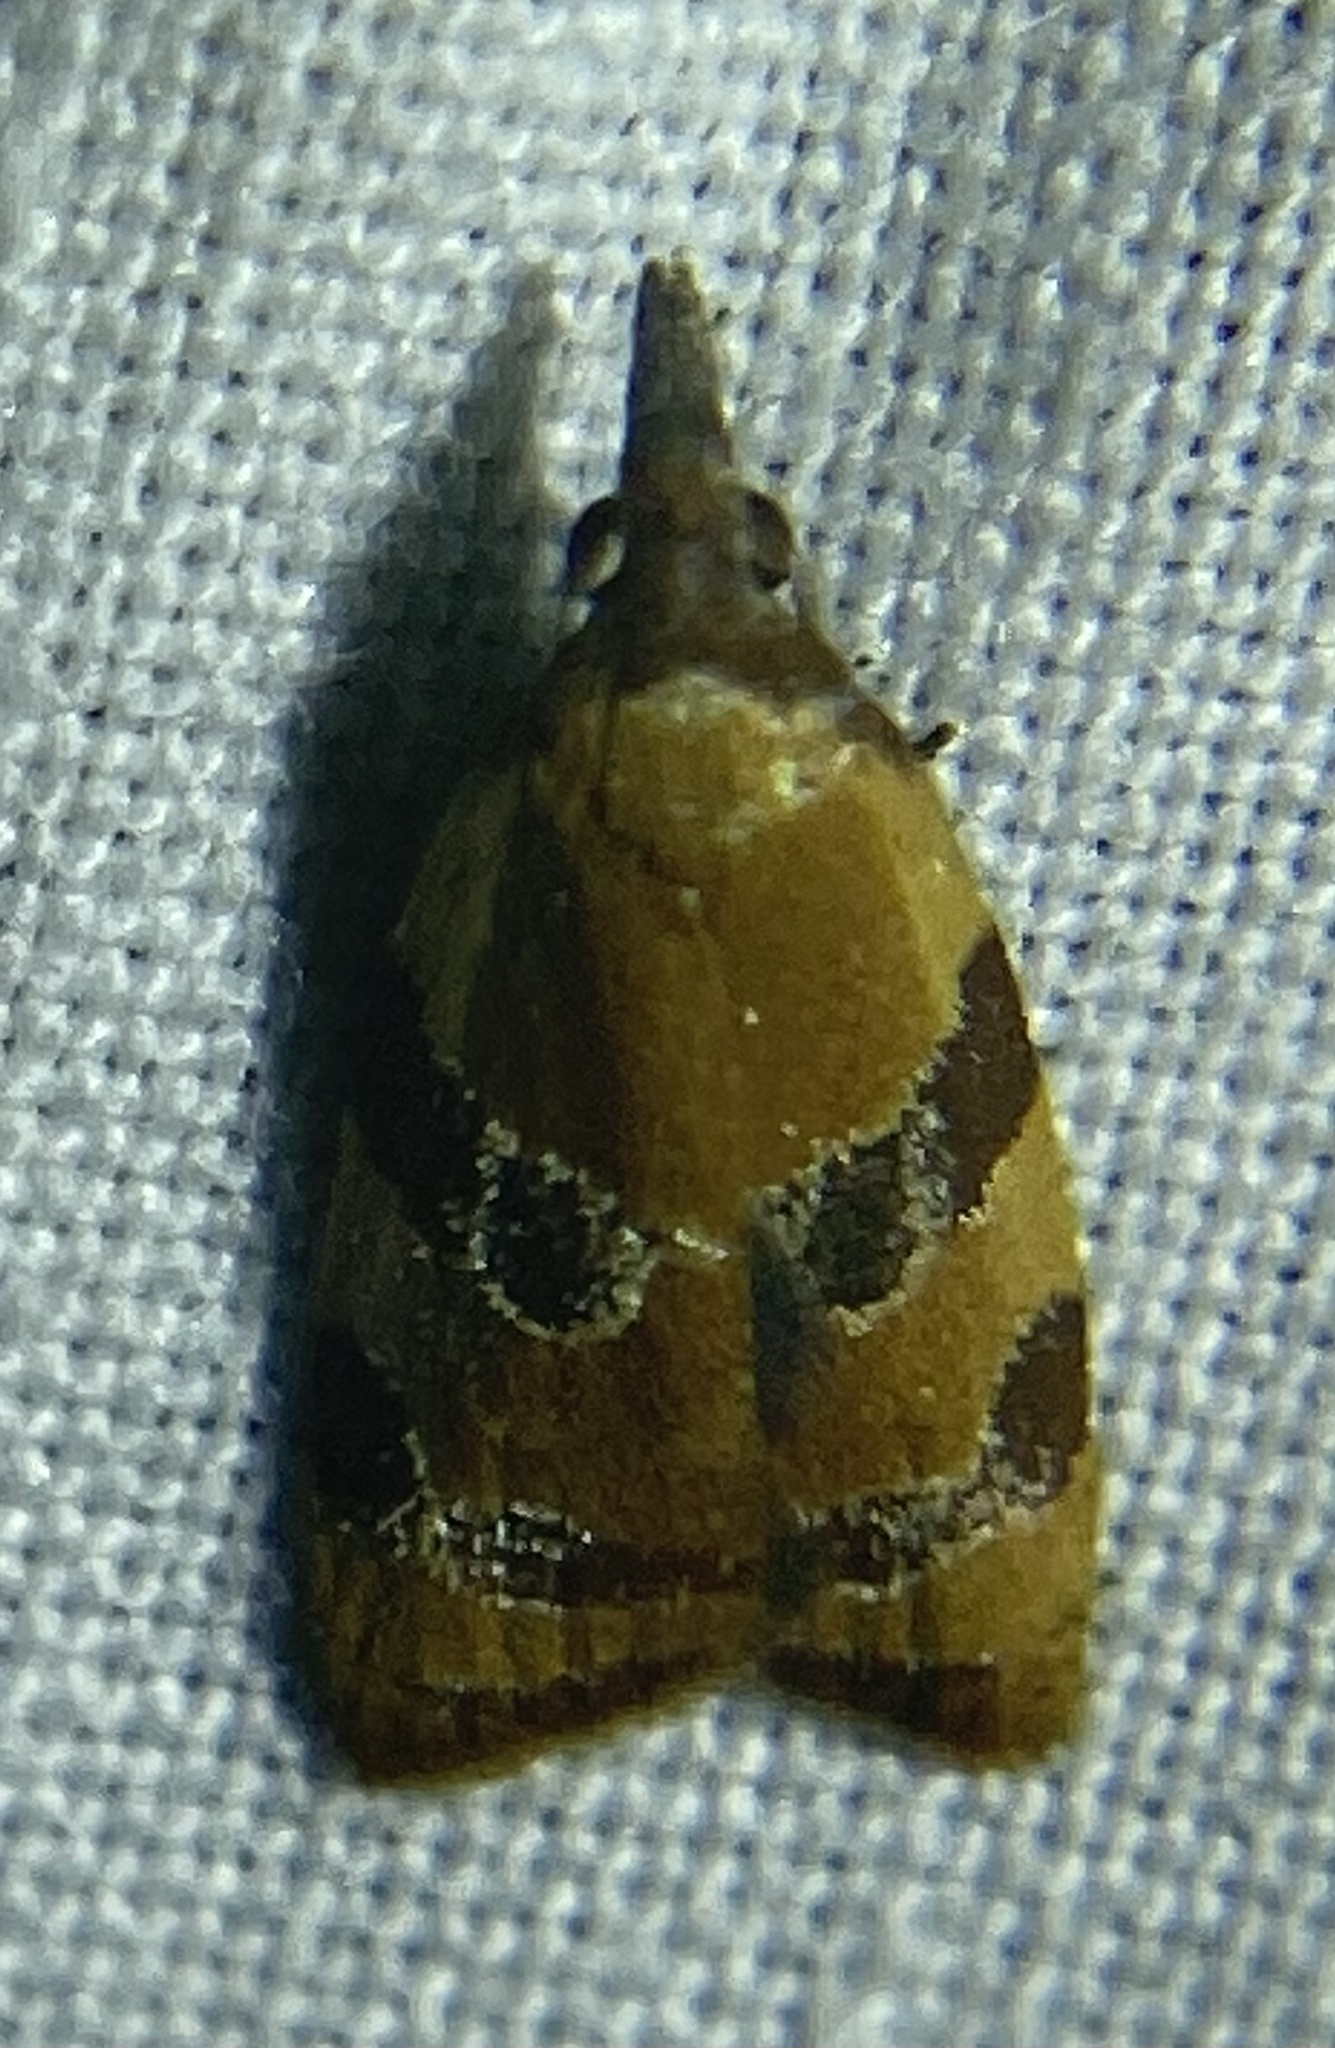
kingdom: Animalia
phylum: Arthropoda
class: Insecta
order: Lepidoptera
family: Tortricidae
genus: Cenopis
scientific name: Cenopis diluticostana
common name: Spring dead-leaf roller moth
